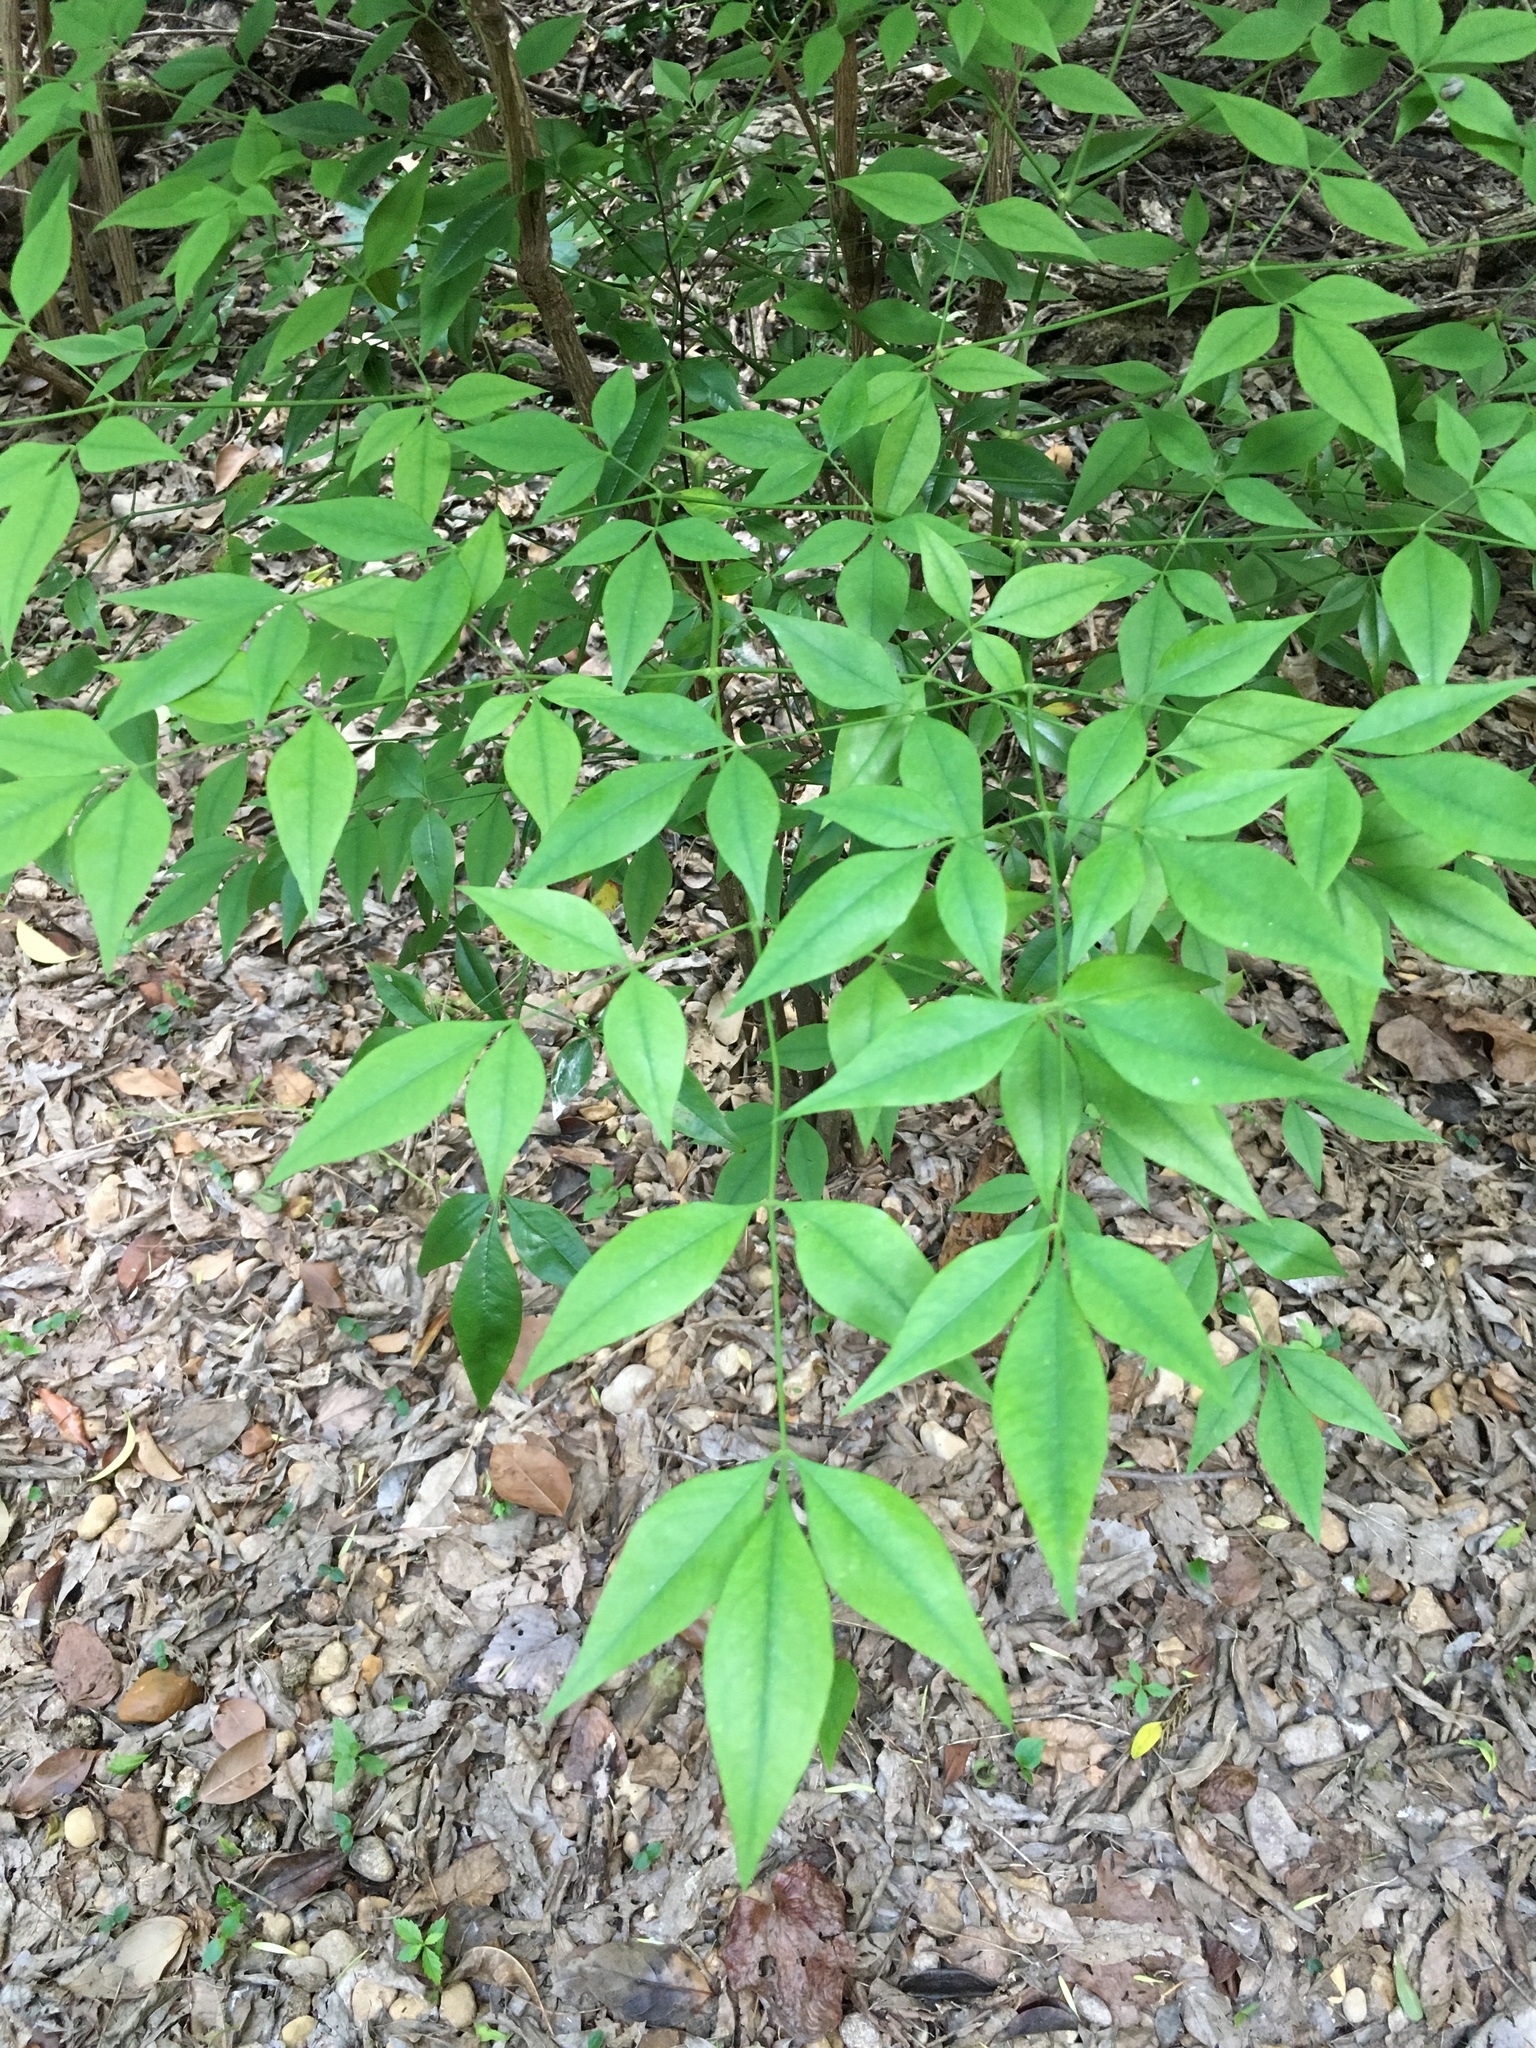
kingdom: Plantae
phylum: Tracheophyta
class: Magnoliopsida
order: Ranunculales
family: Berberidaceae
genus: Nandina
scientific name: Nandina domestica
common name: Sacred bamboo
